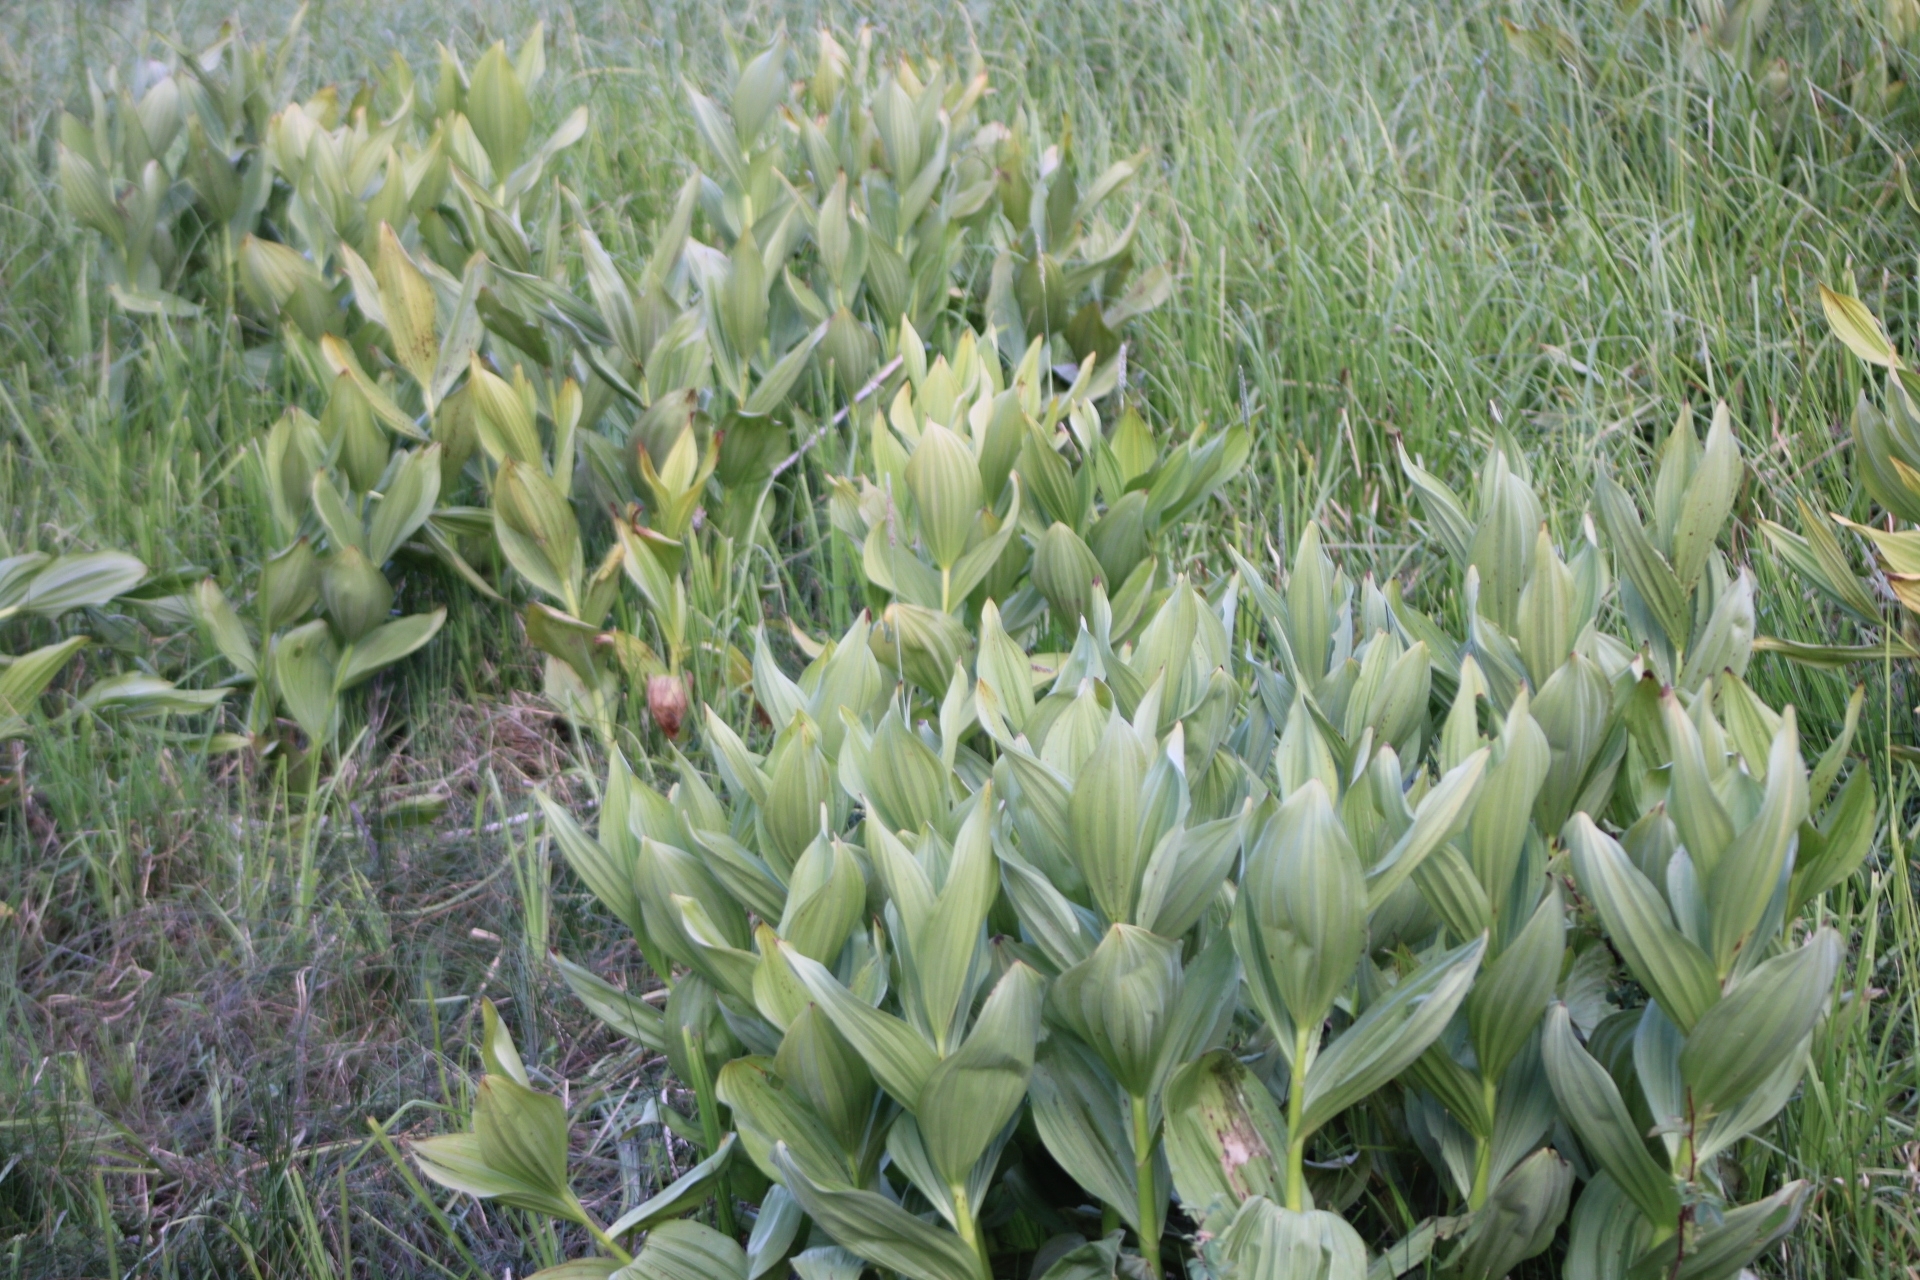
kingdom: Plantae
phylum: Tracheophyta
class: Liliopsida
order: Liliales
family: Melanthiaceae
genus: Veratrum
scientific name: Veratrum californicum
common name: California veratrum
